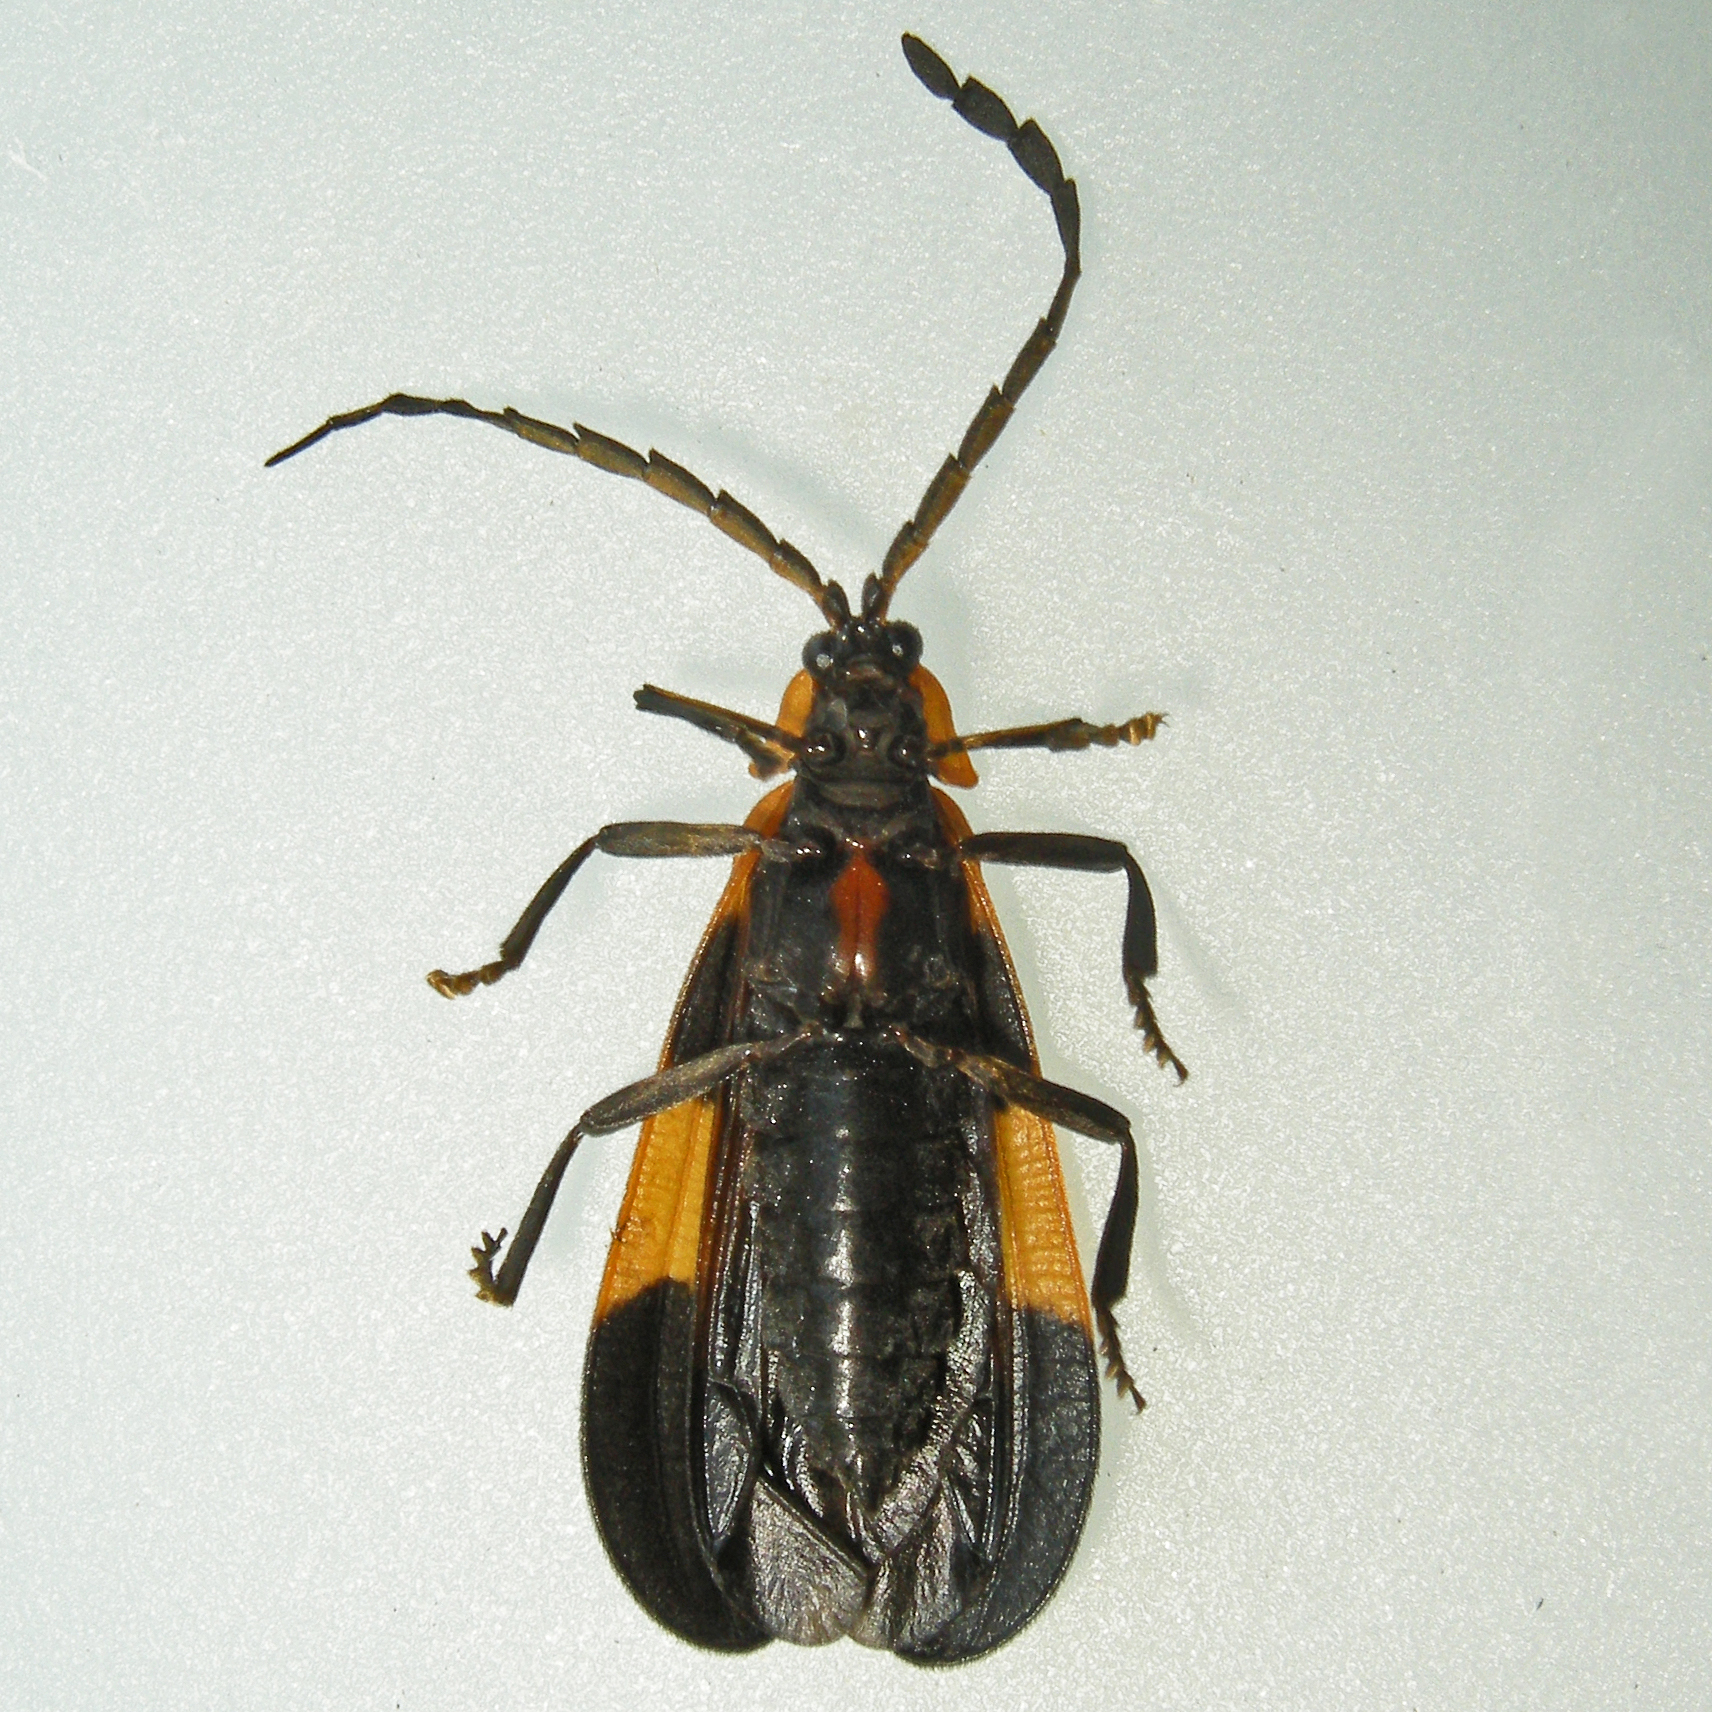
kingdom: Animalia
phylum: Arthropoda
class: Insecta
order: Coleoptera
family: Lycidae
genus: Calopteron
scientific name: Calopteron reticulatum
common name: Banded net-winged beetle
